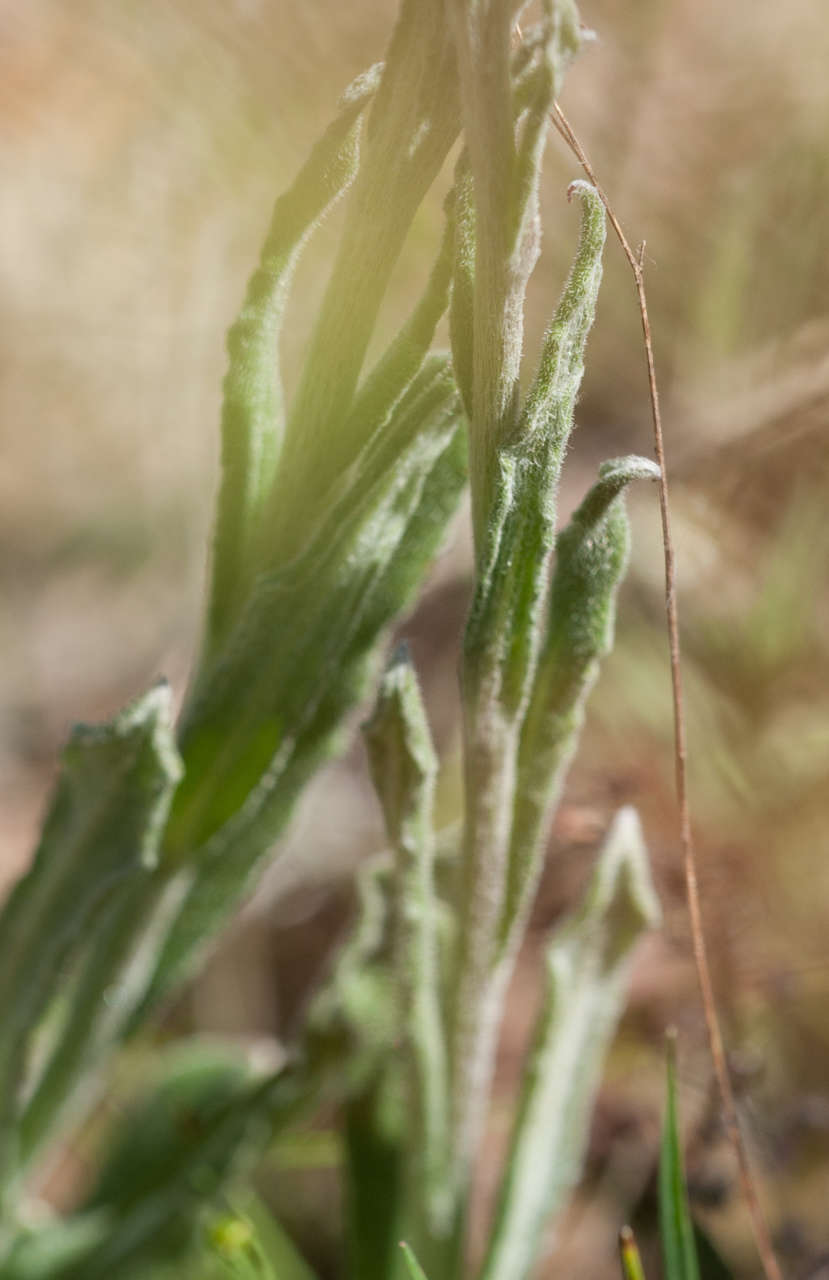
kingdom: Plantae
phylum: Tracheophyta
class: Magnoliopsida
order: Asterales
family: Asteraceae
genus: Coronidium
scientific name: Coronidium scorpioides
